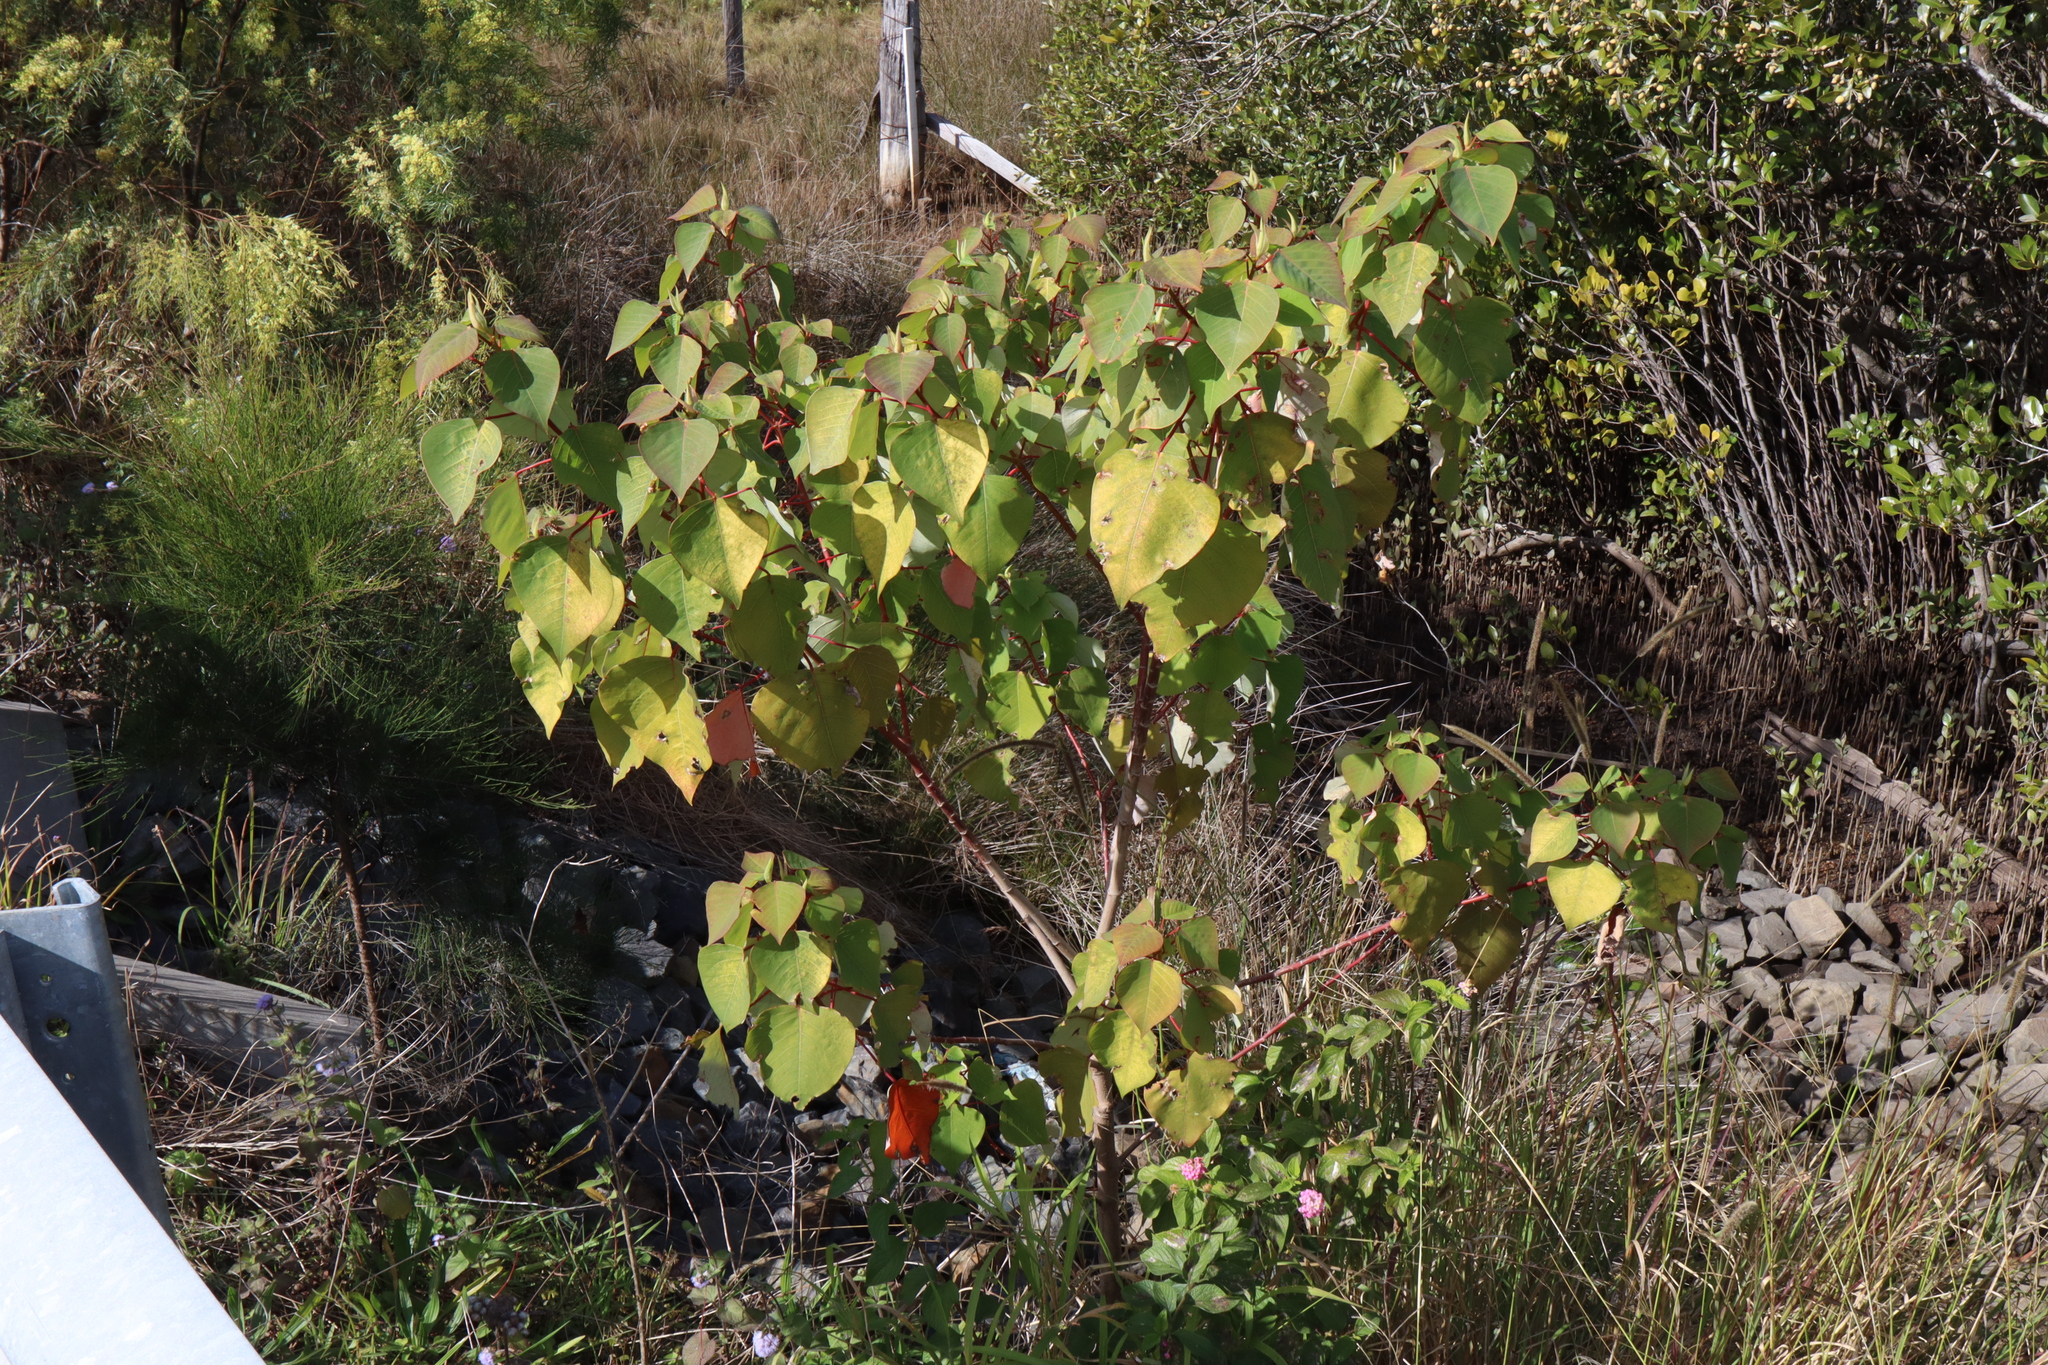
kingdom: Plantae
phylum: Tracheophyta
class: Magnoliopsida
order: Malpighiales
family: Euphorbiaceae
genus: Homalanthus
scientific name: Homalanthus populifolius
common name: Queensland poplar
